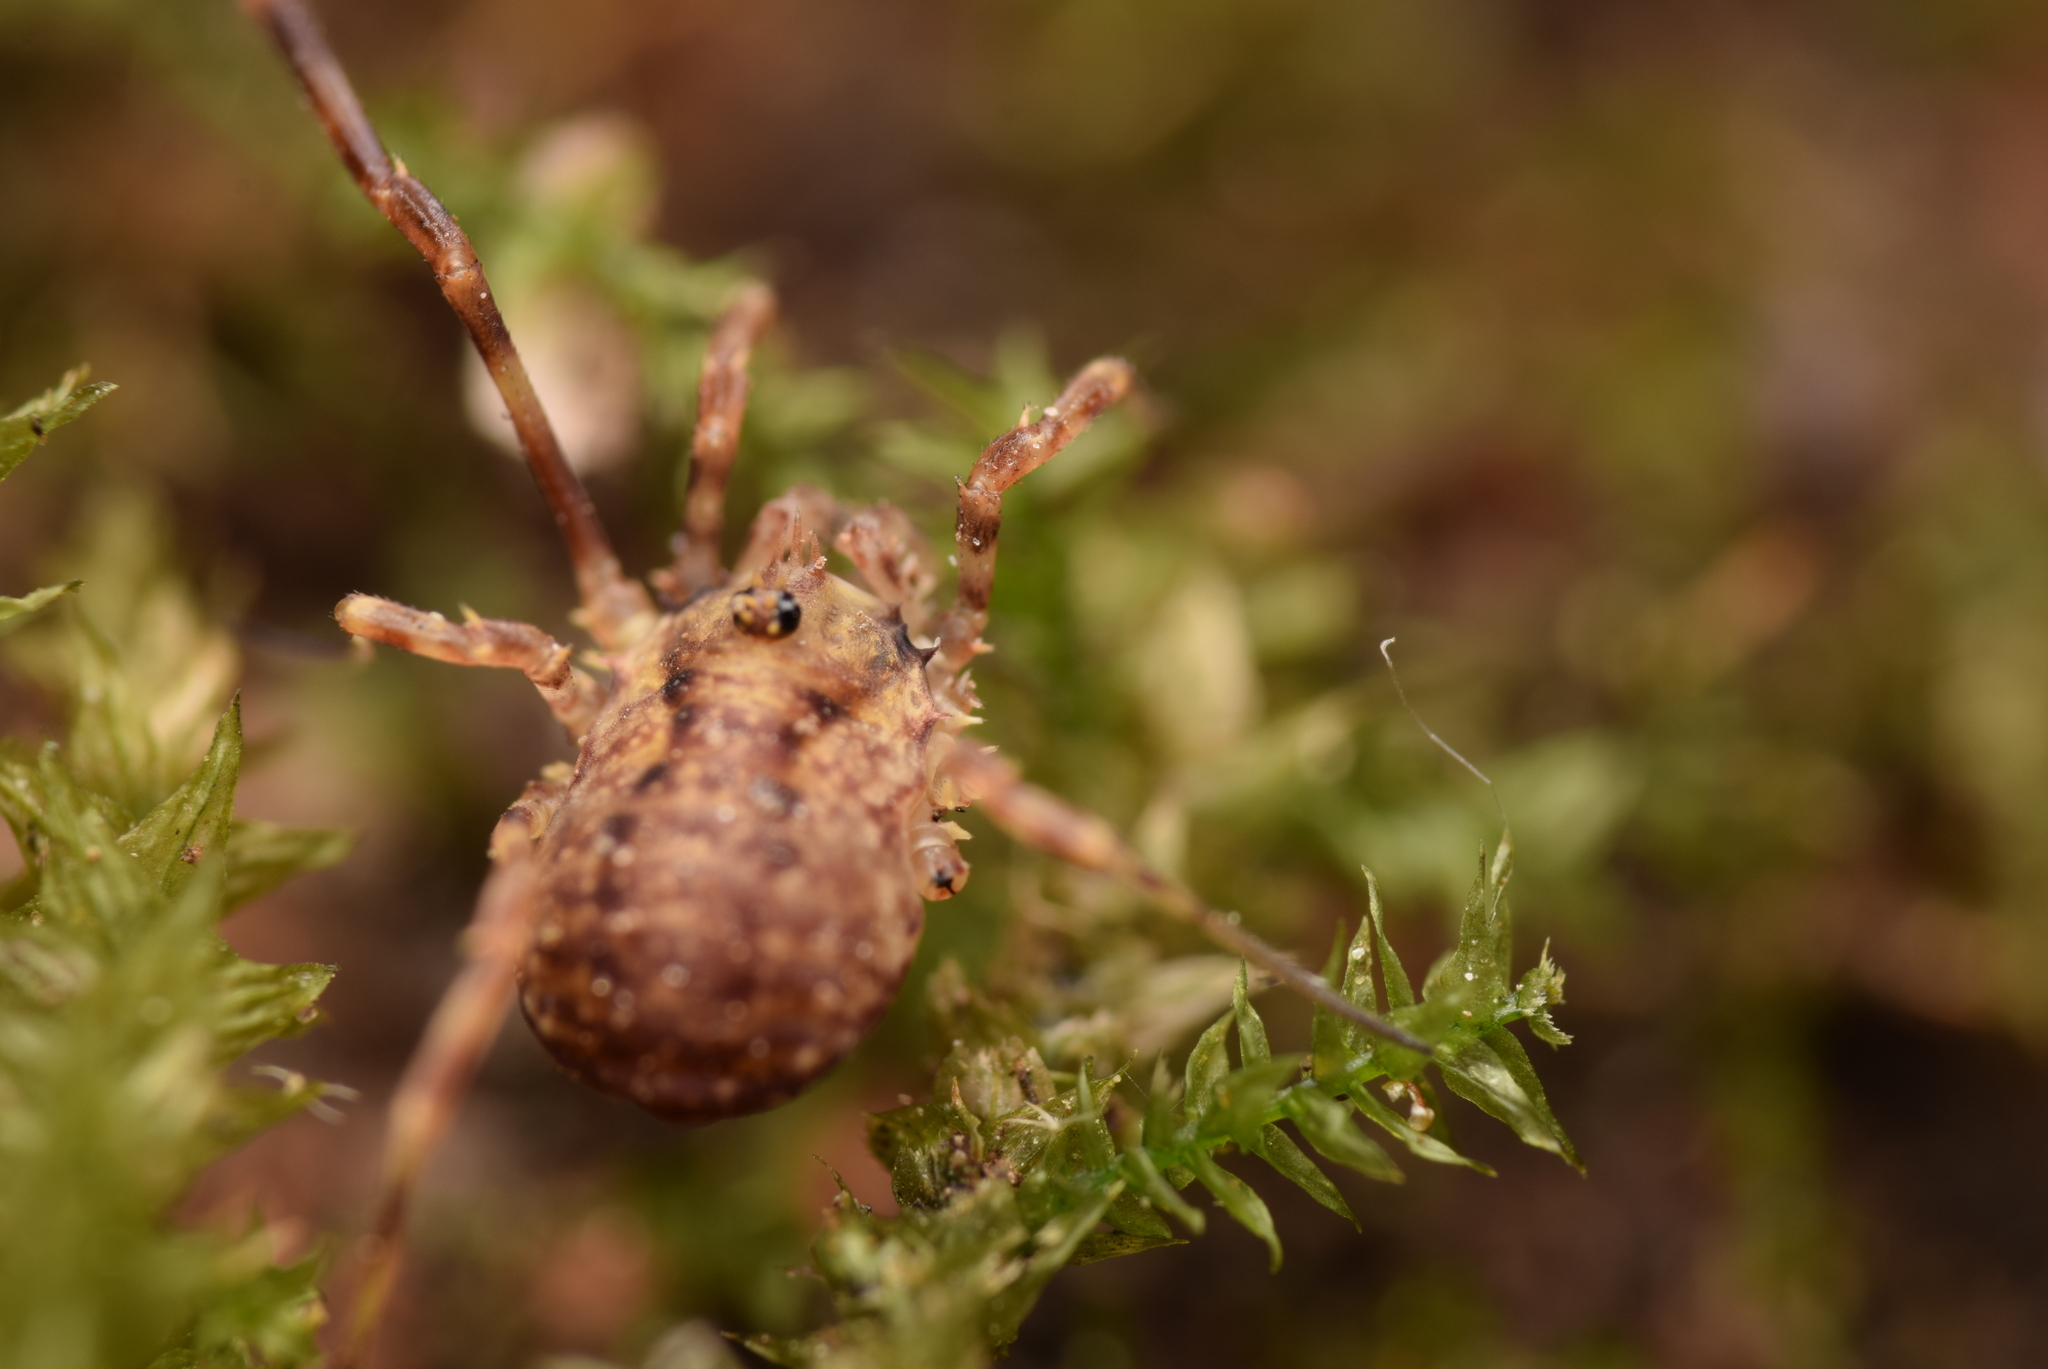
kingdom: Animalia
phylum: Arthropoda
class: Arachnida
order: Opiliones
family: Phalangiidae
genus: Lophopilio
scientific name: Lophopilio palpinalis
